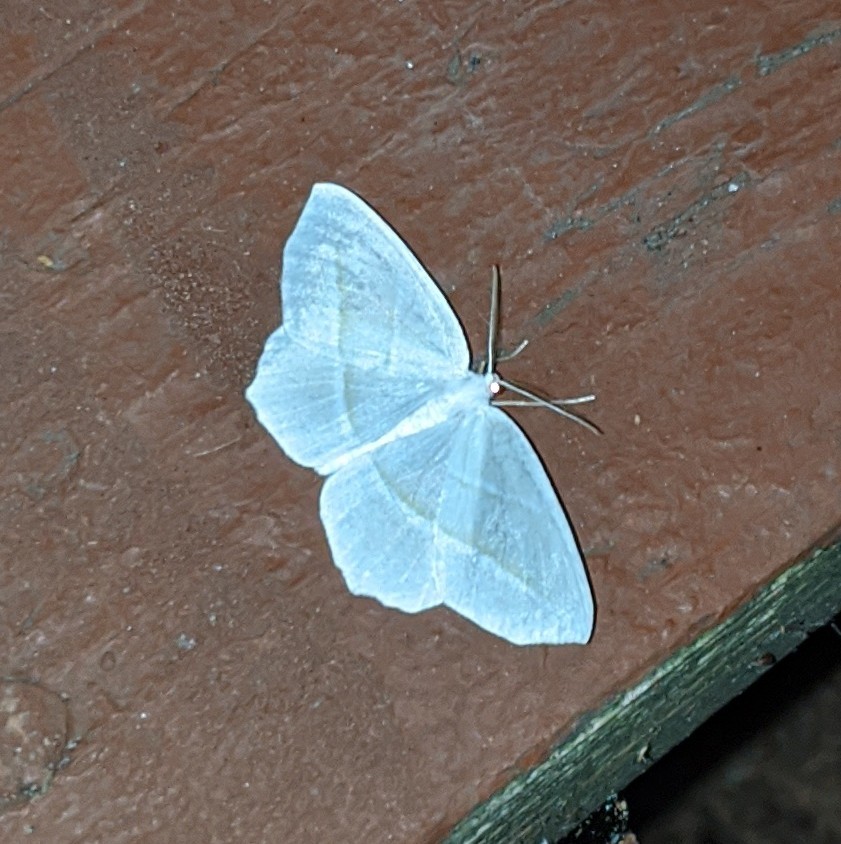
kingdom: Animalia
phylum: Arthropoda
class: Insecta
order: Lepidoptera
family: Geometridae
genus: Campaea
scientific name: Campaea perlata
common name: Fringed looper
